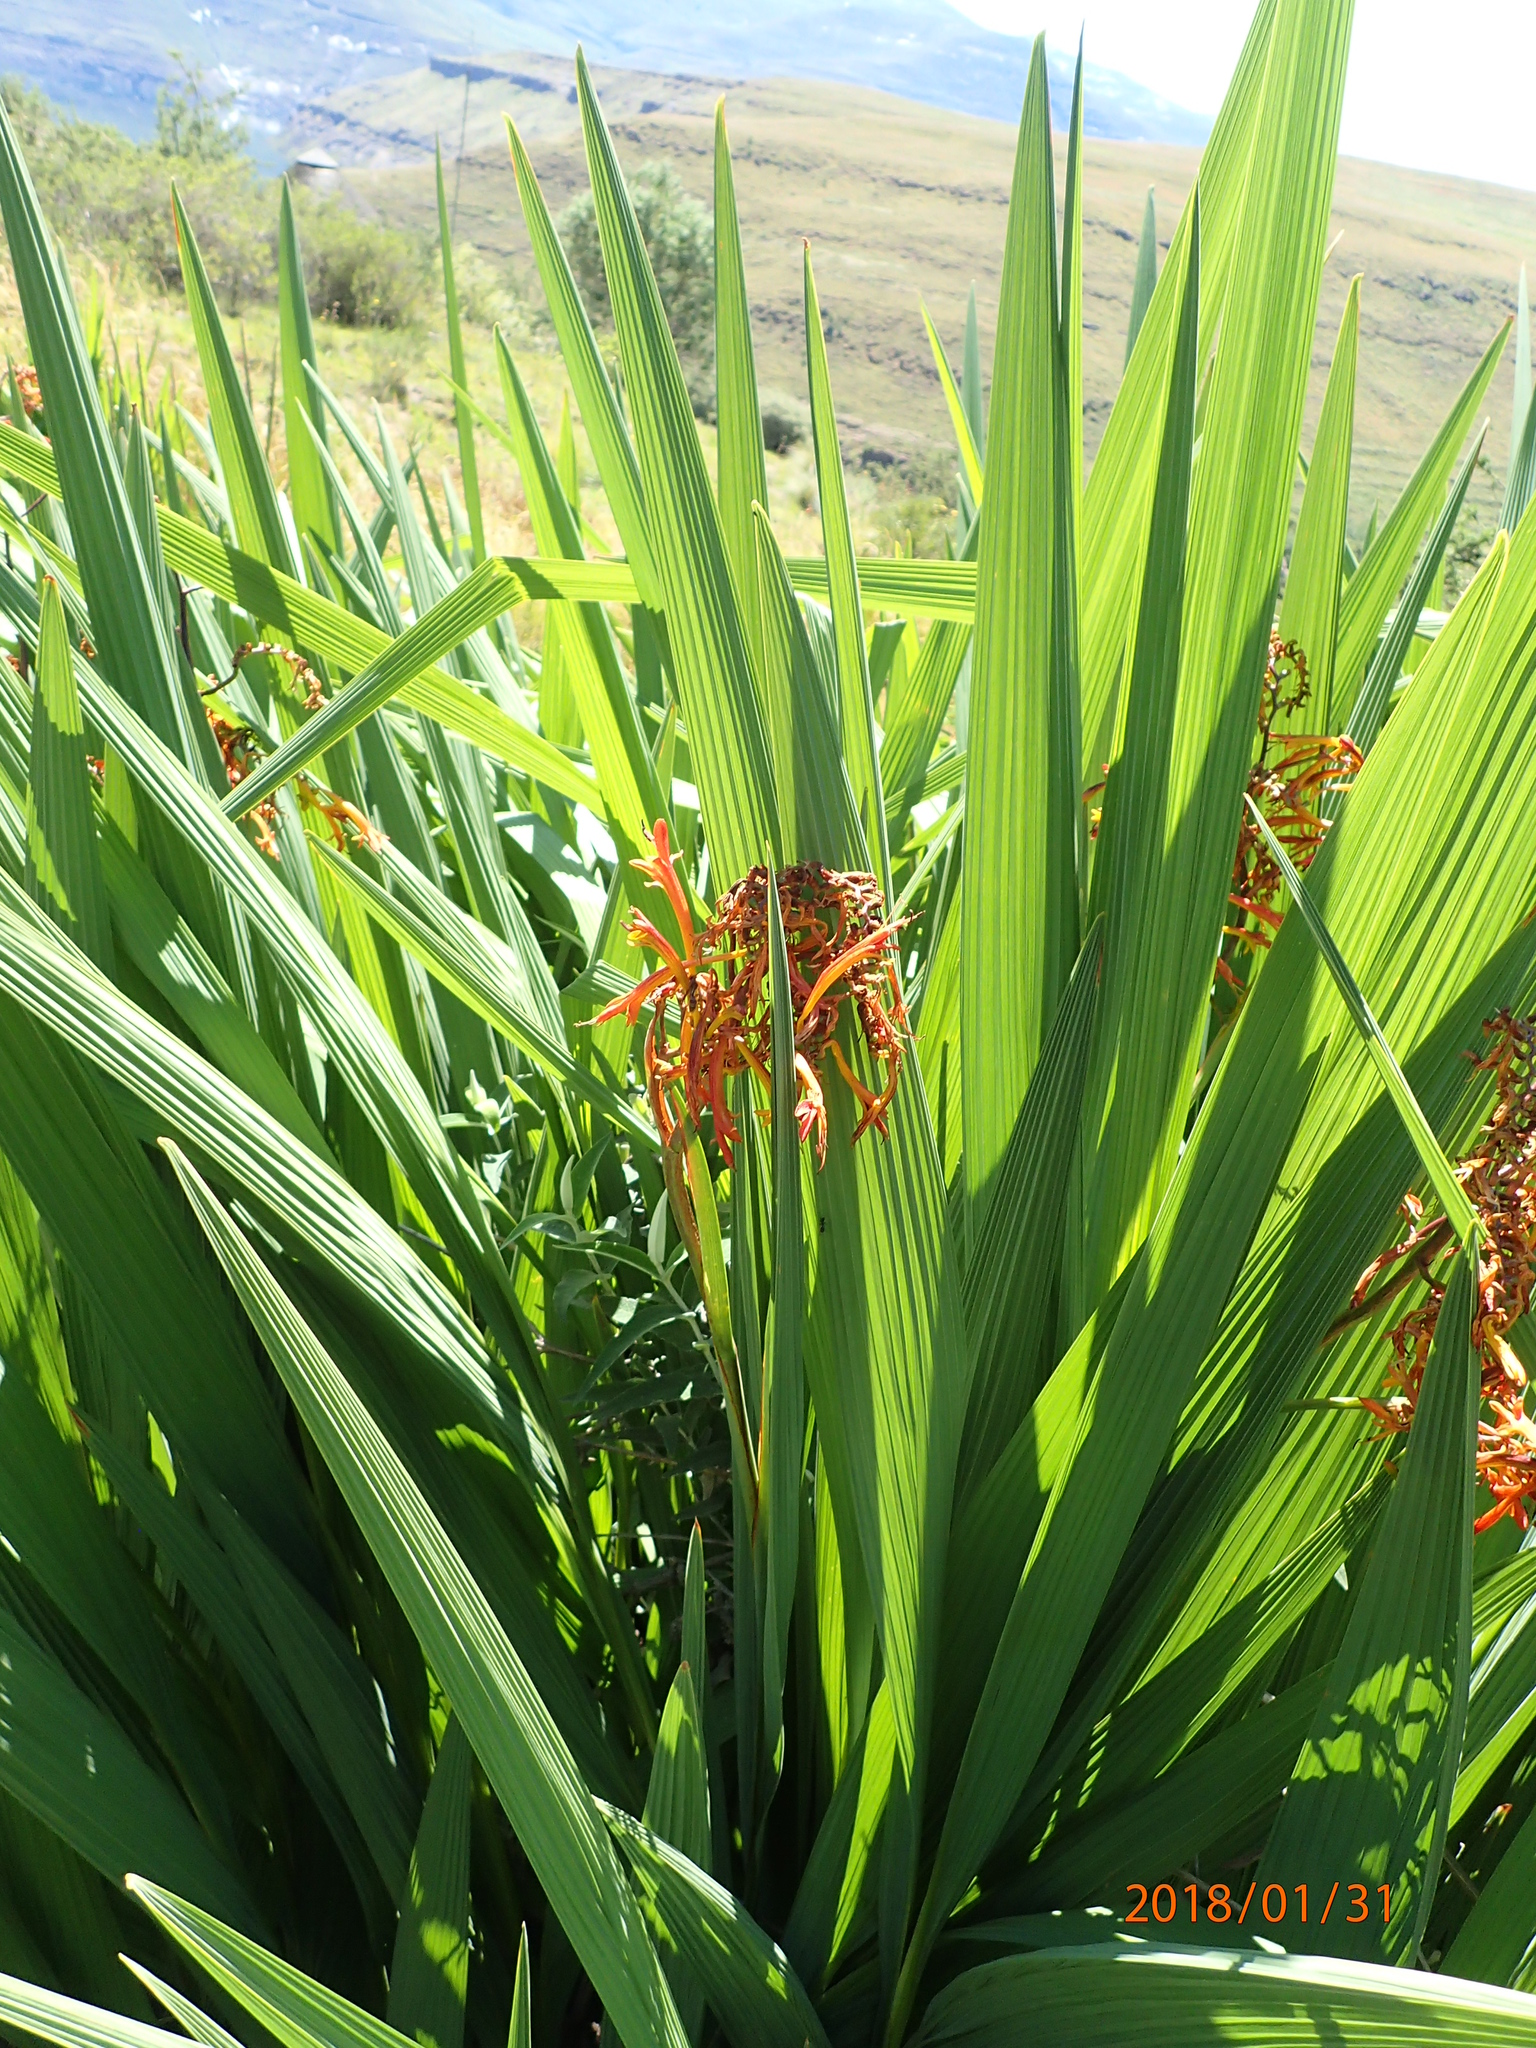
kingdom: Plantae
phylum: Tracheophyta
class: Liliopsida
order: Asparagales
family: Iridaceae
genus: Crocosmia
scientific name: Crocosmia paniculata
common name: Aunt eliza
